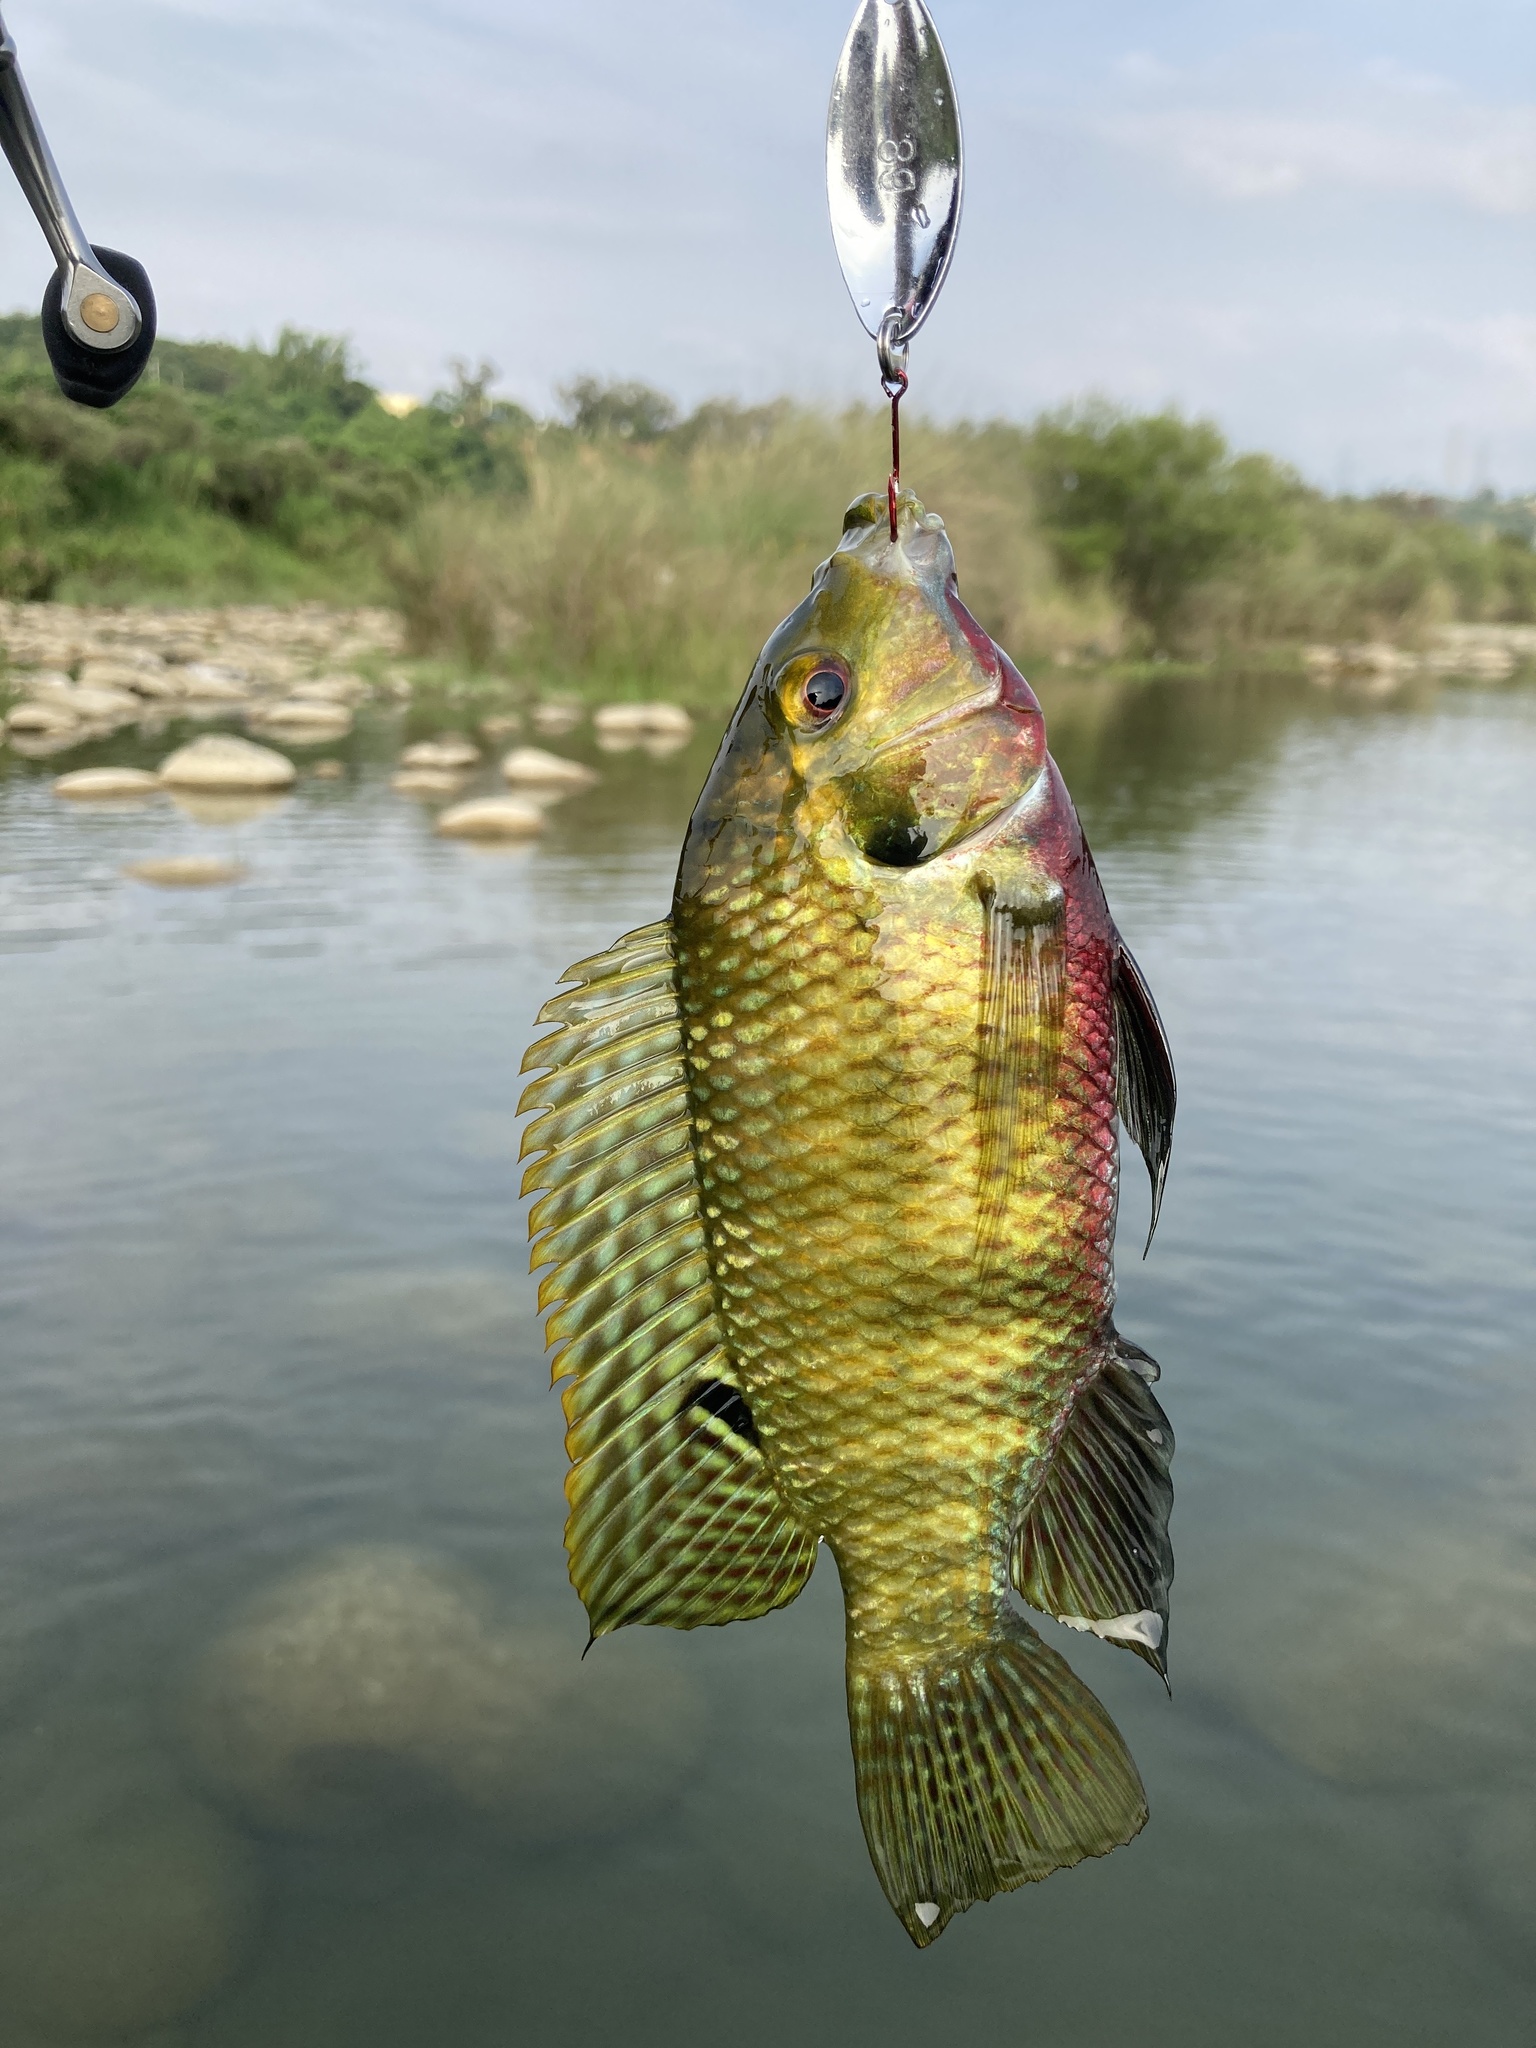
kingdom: Animalia
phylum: Chordata
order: Perciformes
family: Cichlidae
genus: Coptodon
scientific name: Coptodon zillii
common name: Redbelly tilapia
